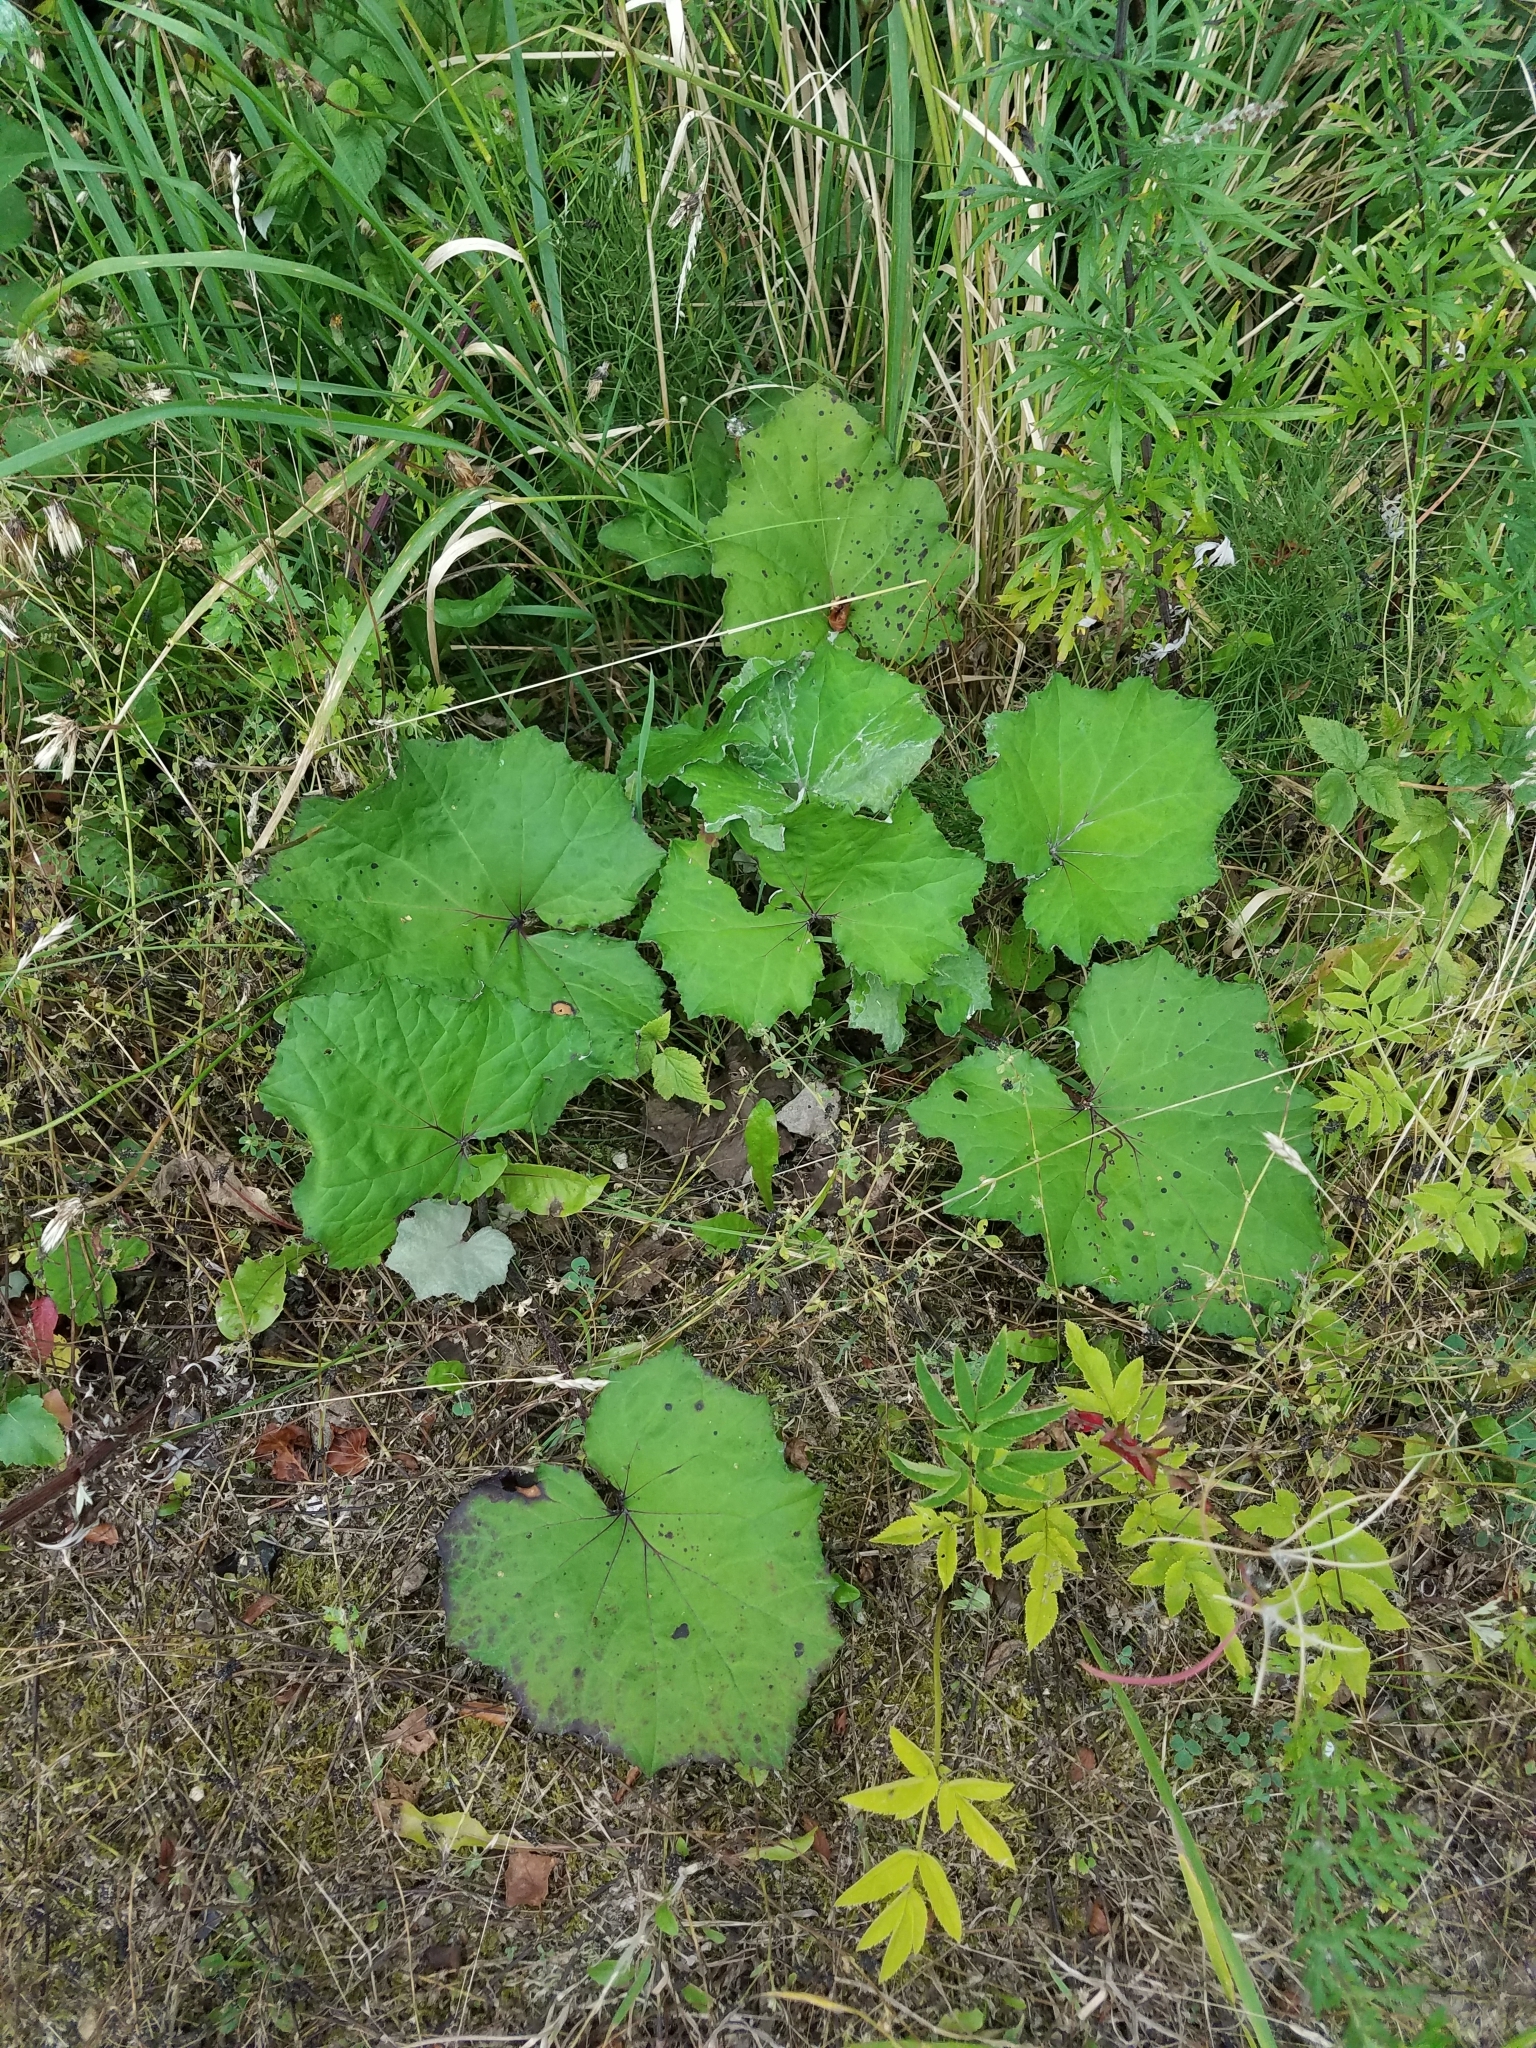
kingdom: Plantae
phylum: Tracheophyta
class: Magnoliopsida
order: Asterales
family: Asteraceae
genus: Tussilago
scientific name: Tussilago farfara
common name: Coltsfoot
